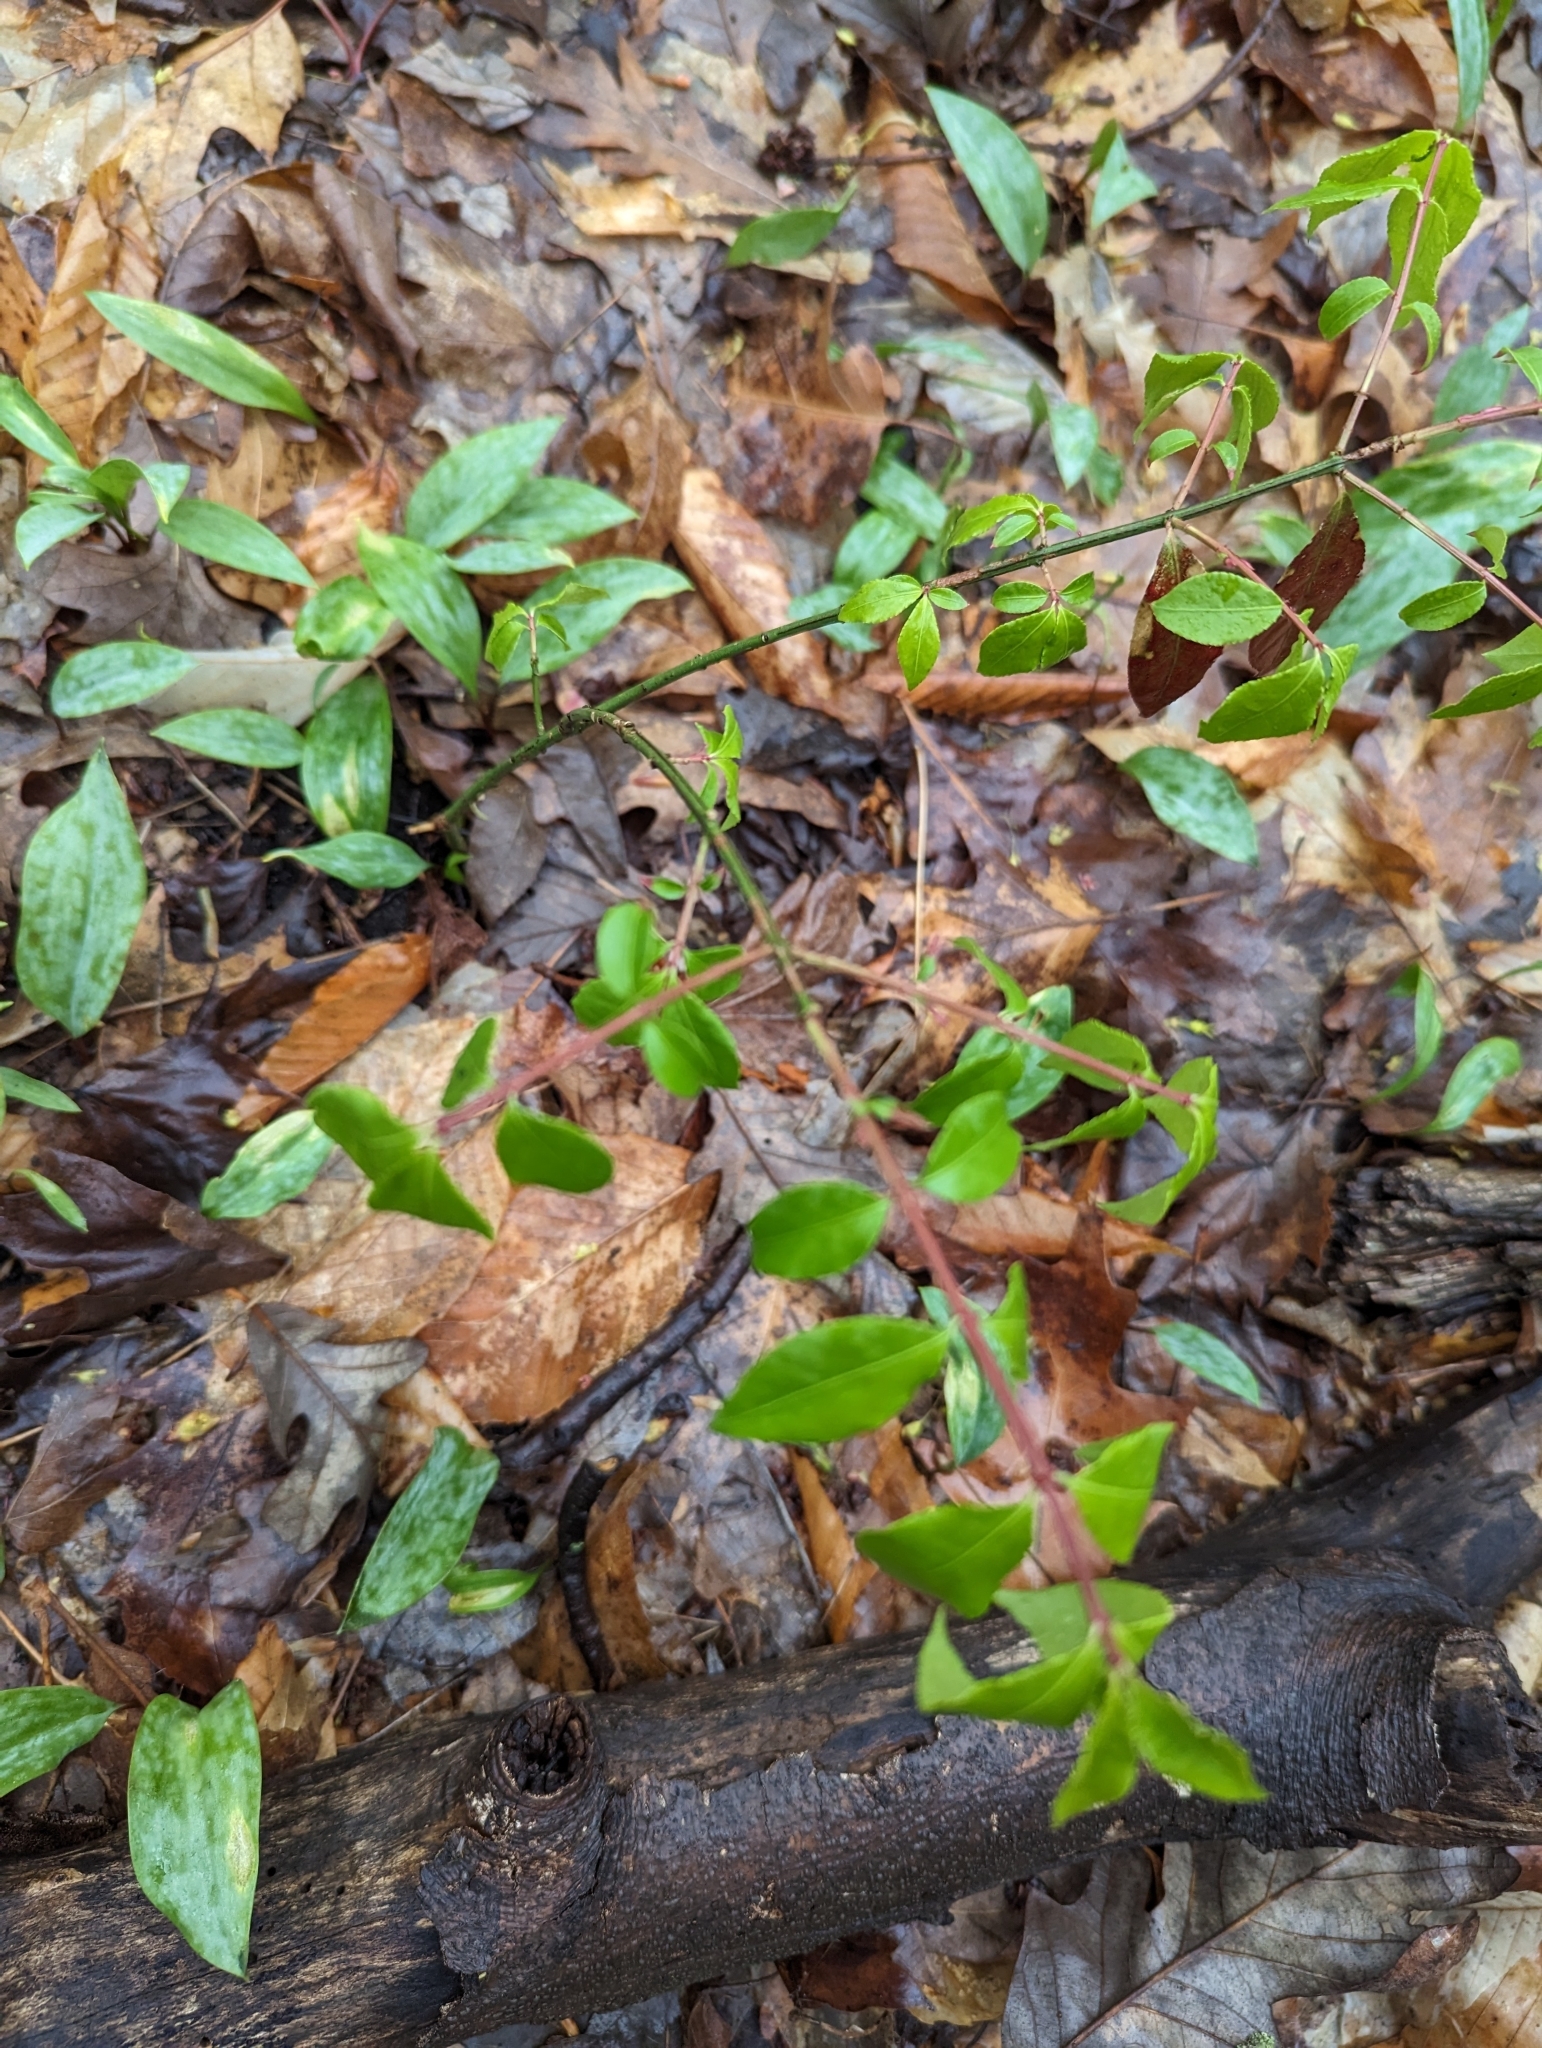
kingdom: Plantae
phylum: Tracheophyta
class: Magnoliopsida
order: Celastrales
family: Celastraceae
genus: Euonymus
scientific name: Euonymus alatus
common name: Winged euonymus
